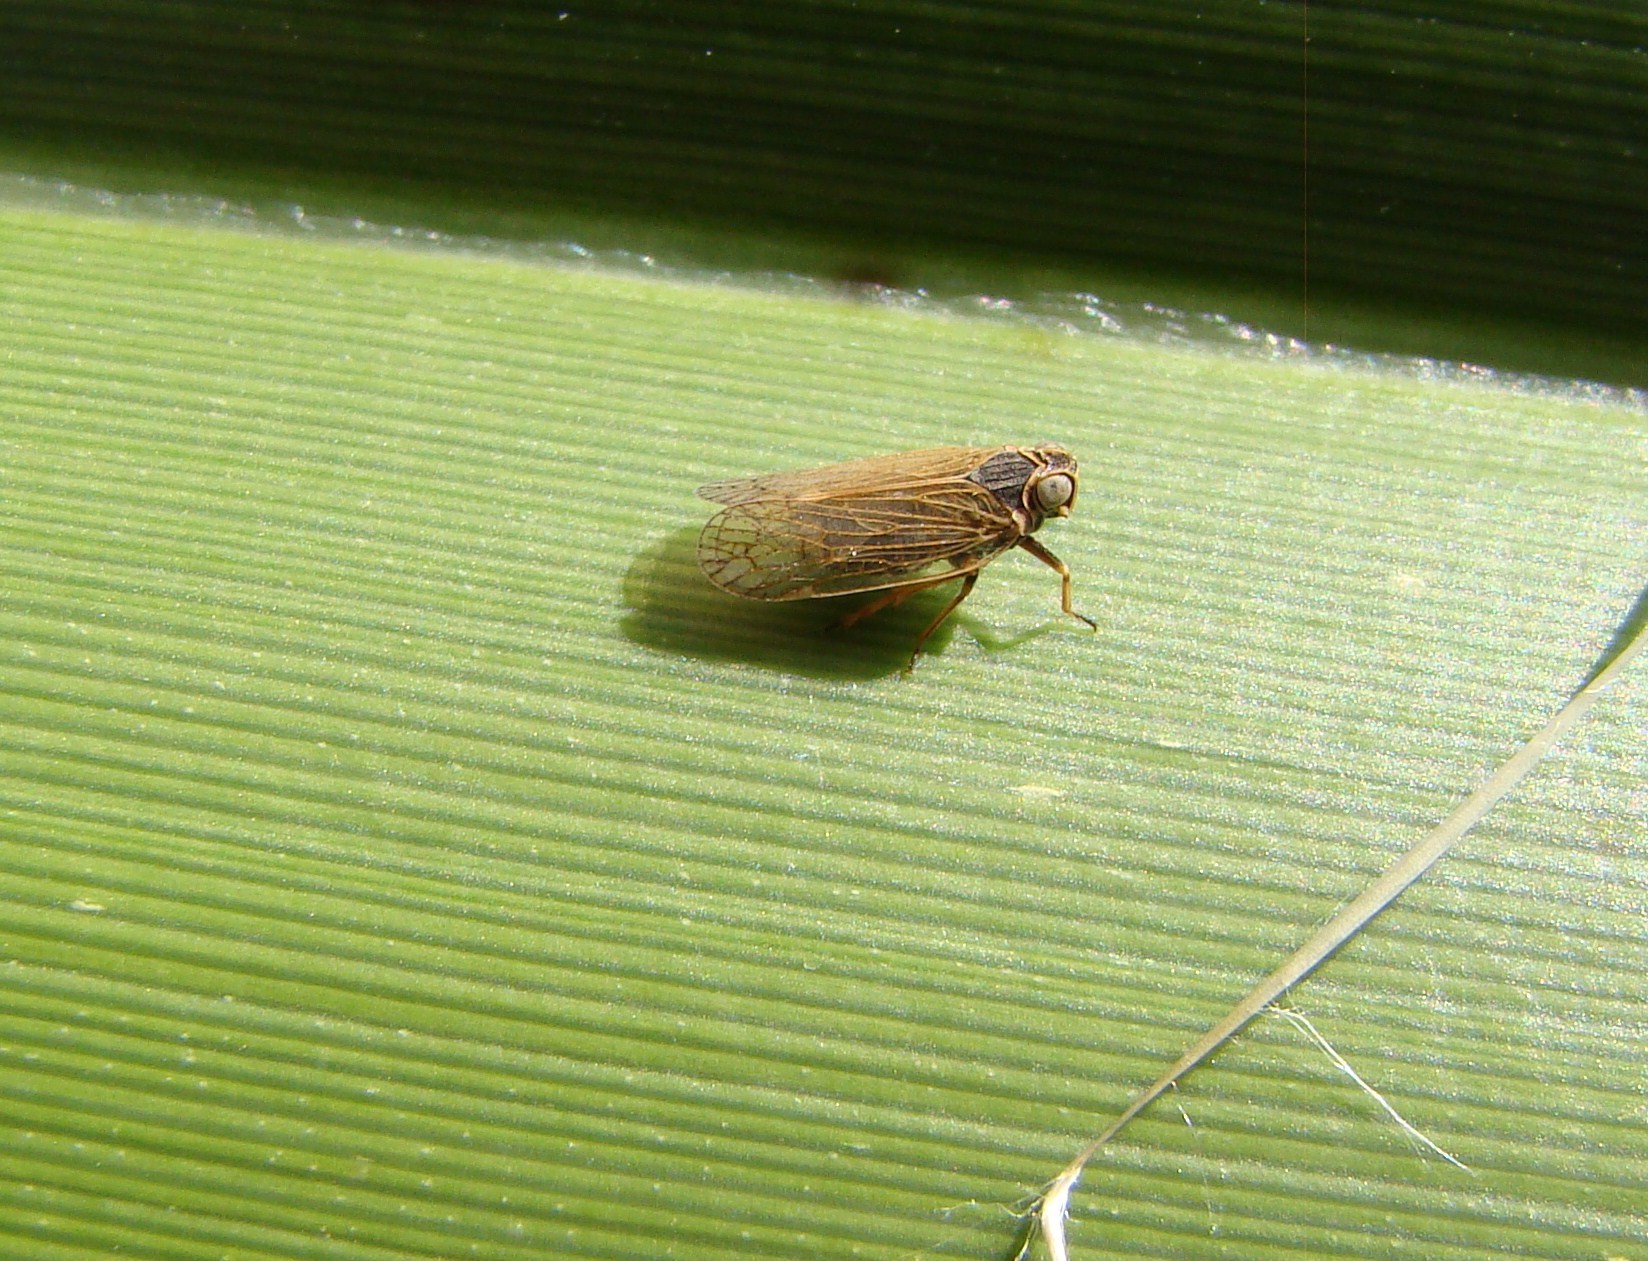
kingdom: Animalia
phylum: Arthropoda
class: Insecta
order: Hemiptera
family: Cixiidae
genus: Zeoliarus
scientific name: Zeoliarus oppositus
